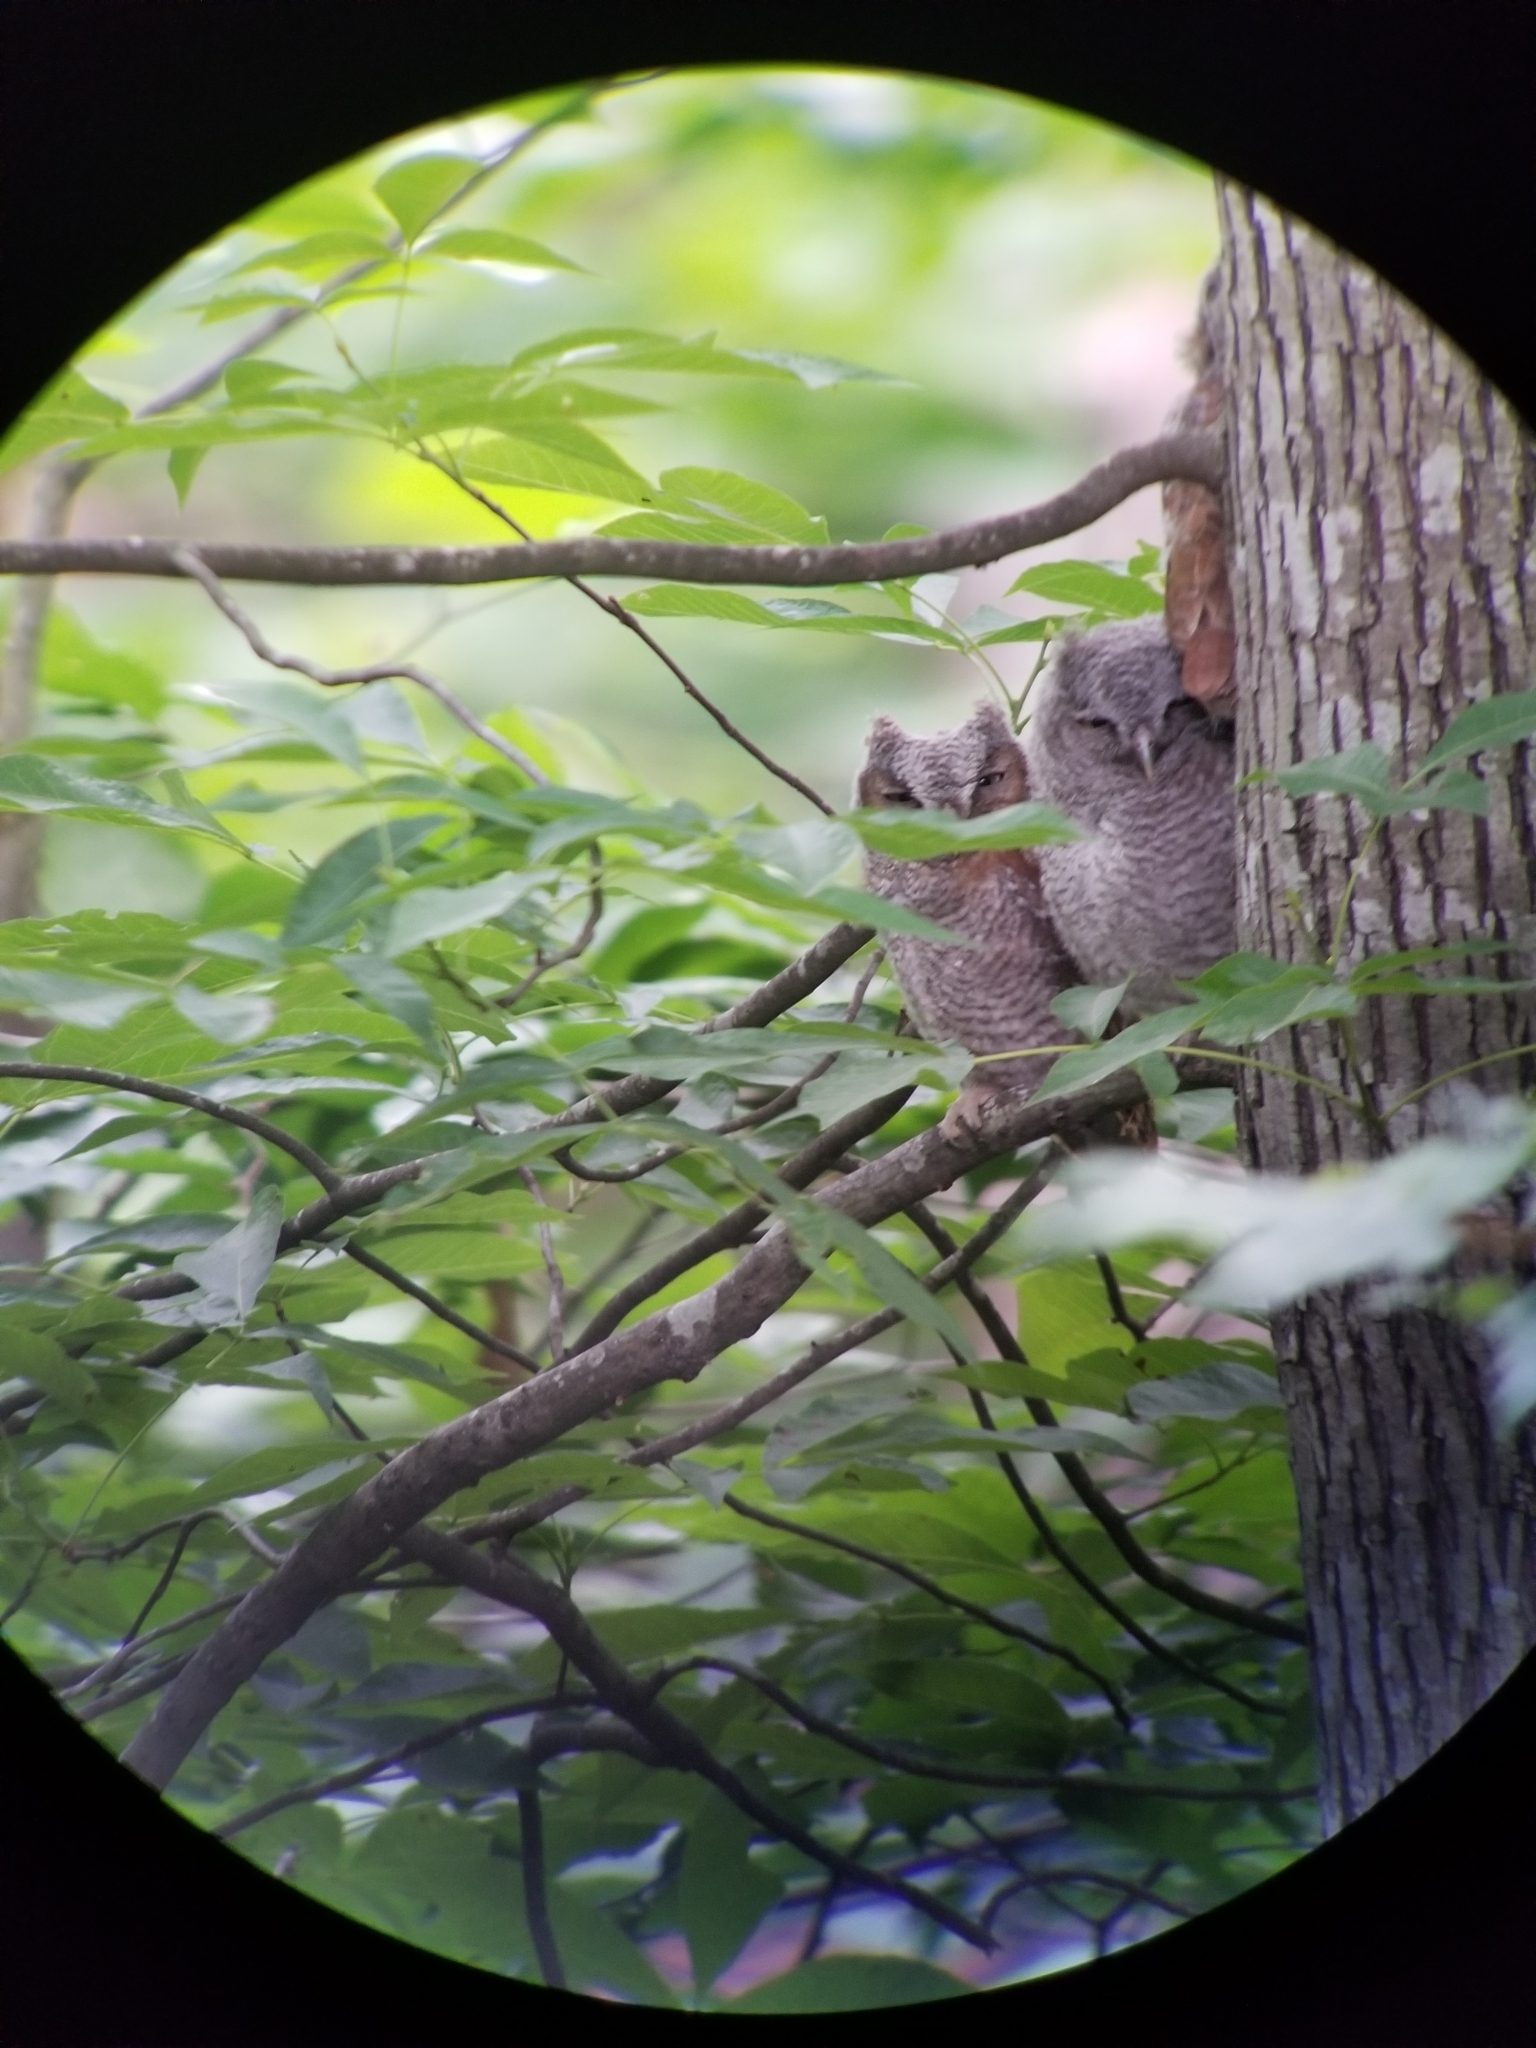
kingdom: Animalia
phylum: Chordata
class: Aves
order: Strigiformes
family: Strigidae
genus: Megascops
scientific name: Megascops asio
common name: Eastern screech-owl
